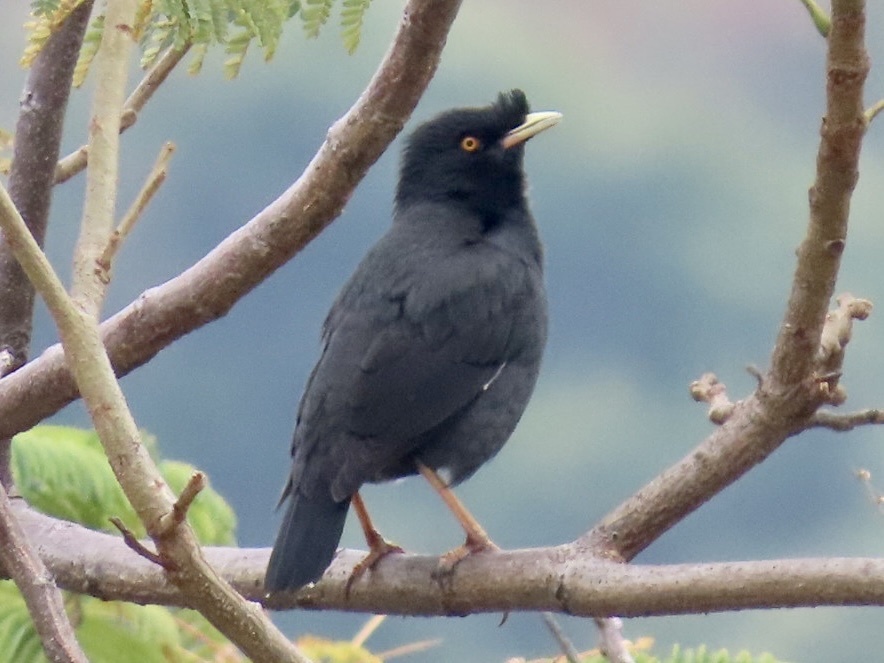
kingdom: Animalia
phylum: Chordata
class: Aves
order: Passeriformes
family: Sturnidae
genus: Acridotheres
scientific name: Acridotheres cristatellus
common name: Crested myna
